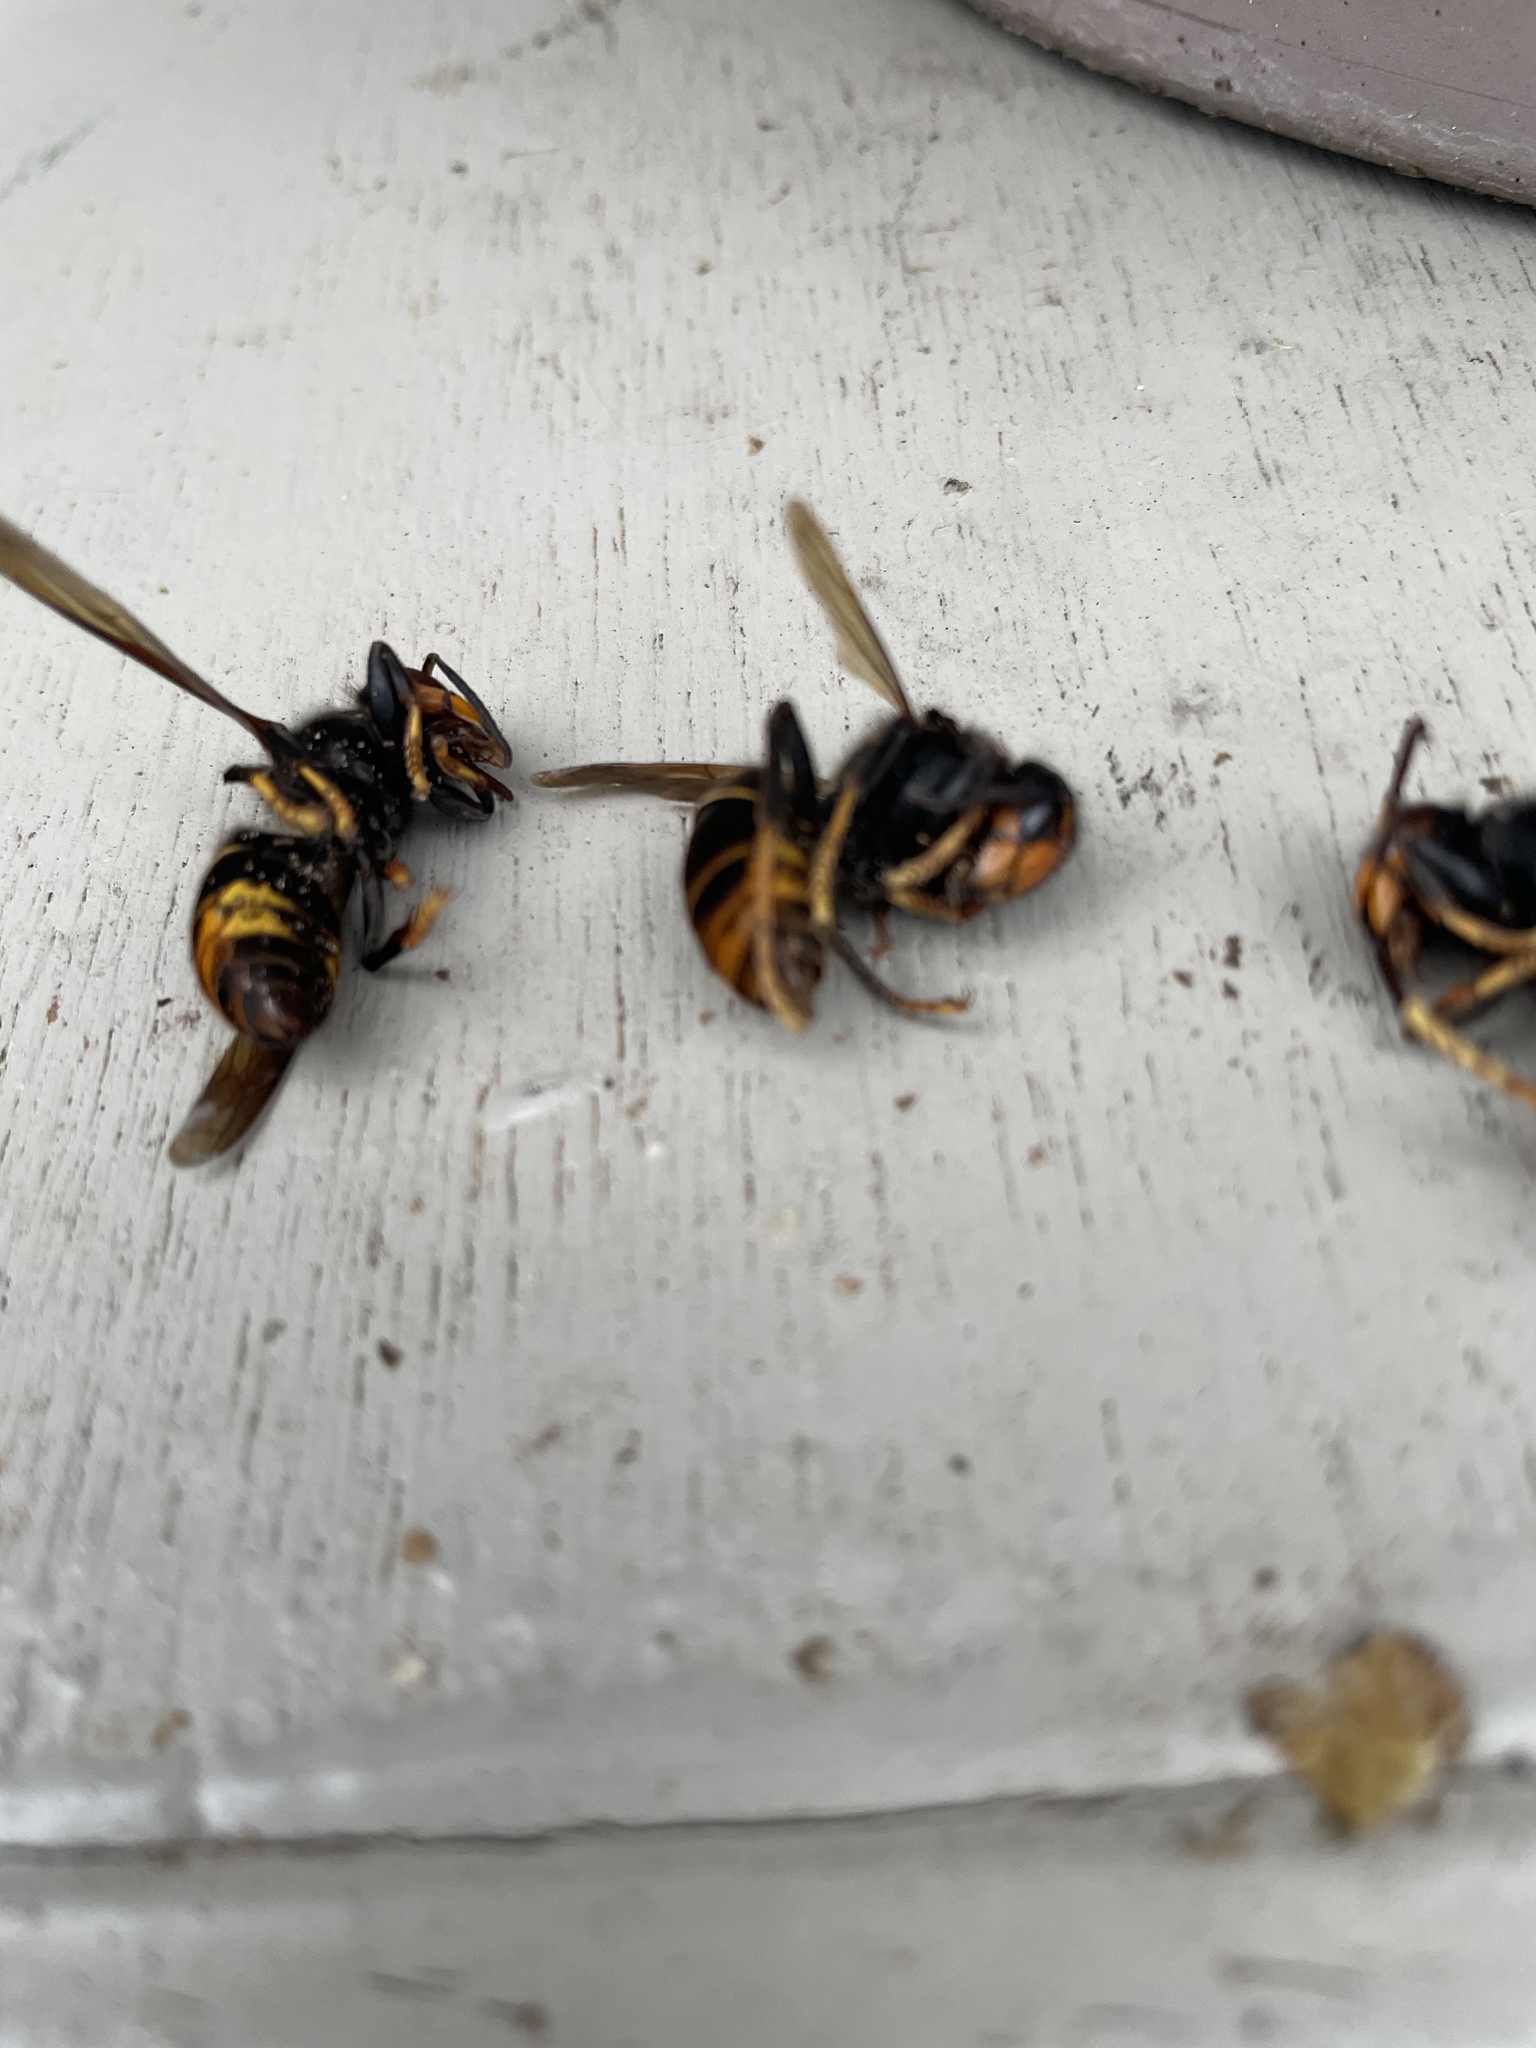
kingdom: Animalia
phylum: Arthropoda
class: Insecta
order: Hymenoptera
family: Vespidae
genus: Vespa
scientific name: Vespa velutina
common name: Asian hornet
